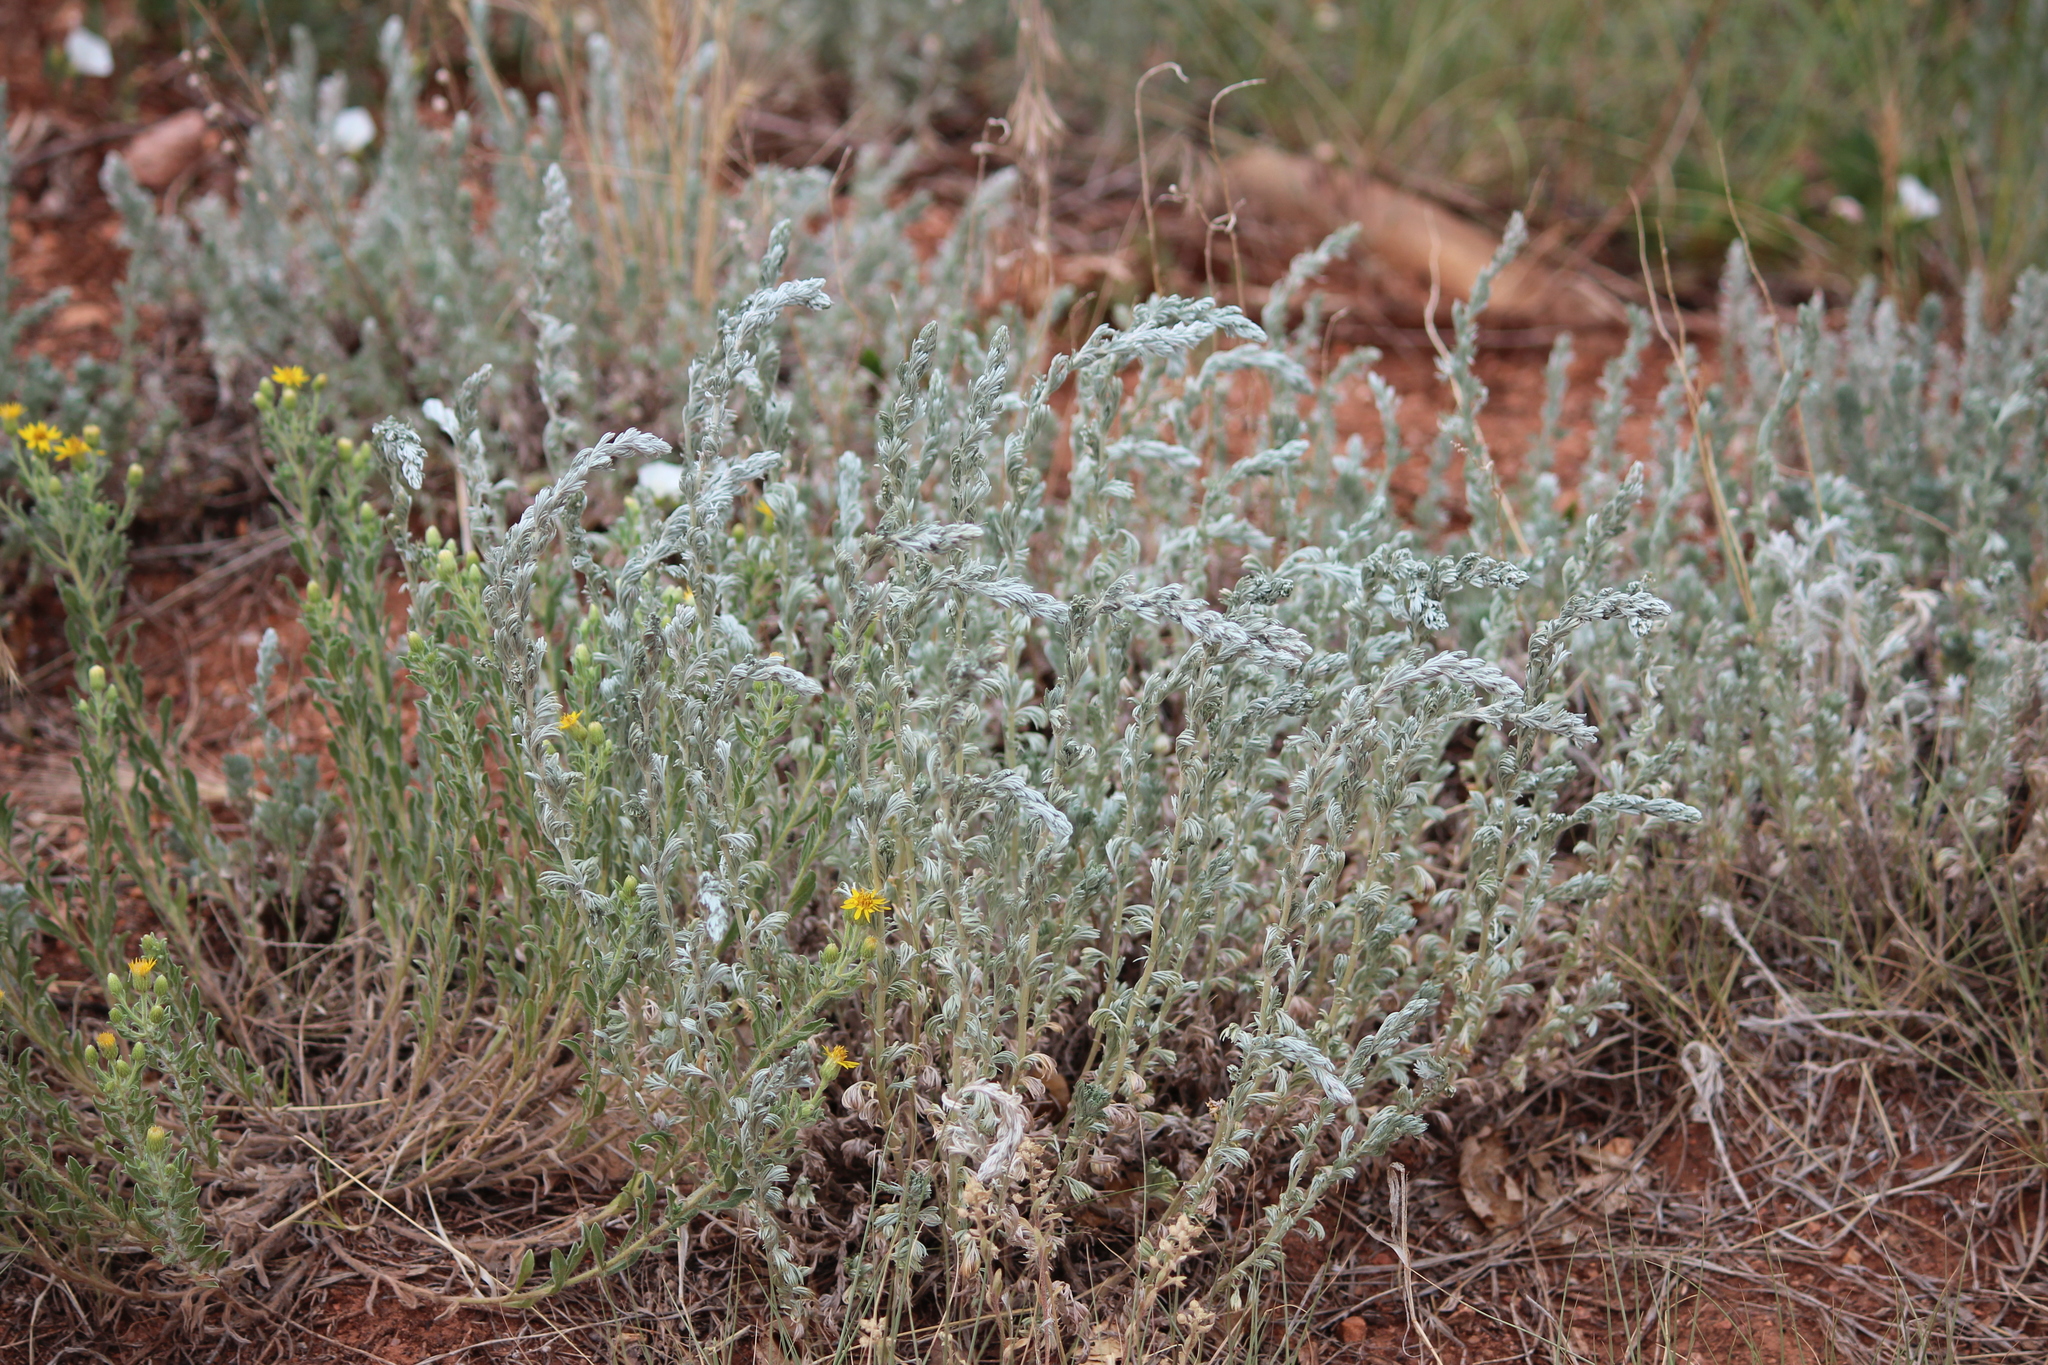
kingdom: Plantae
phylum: Tracheophyta
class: Magnoliopsida
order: Asterales
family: Asteraceae
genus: Artemisia
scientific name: Artemisia frigida
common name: Prairie sagewort
